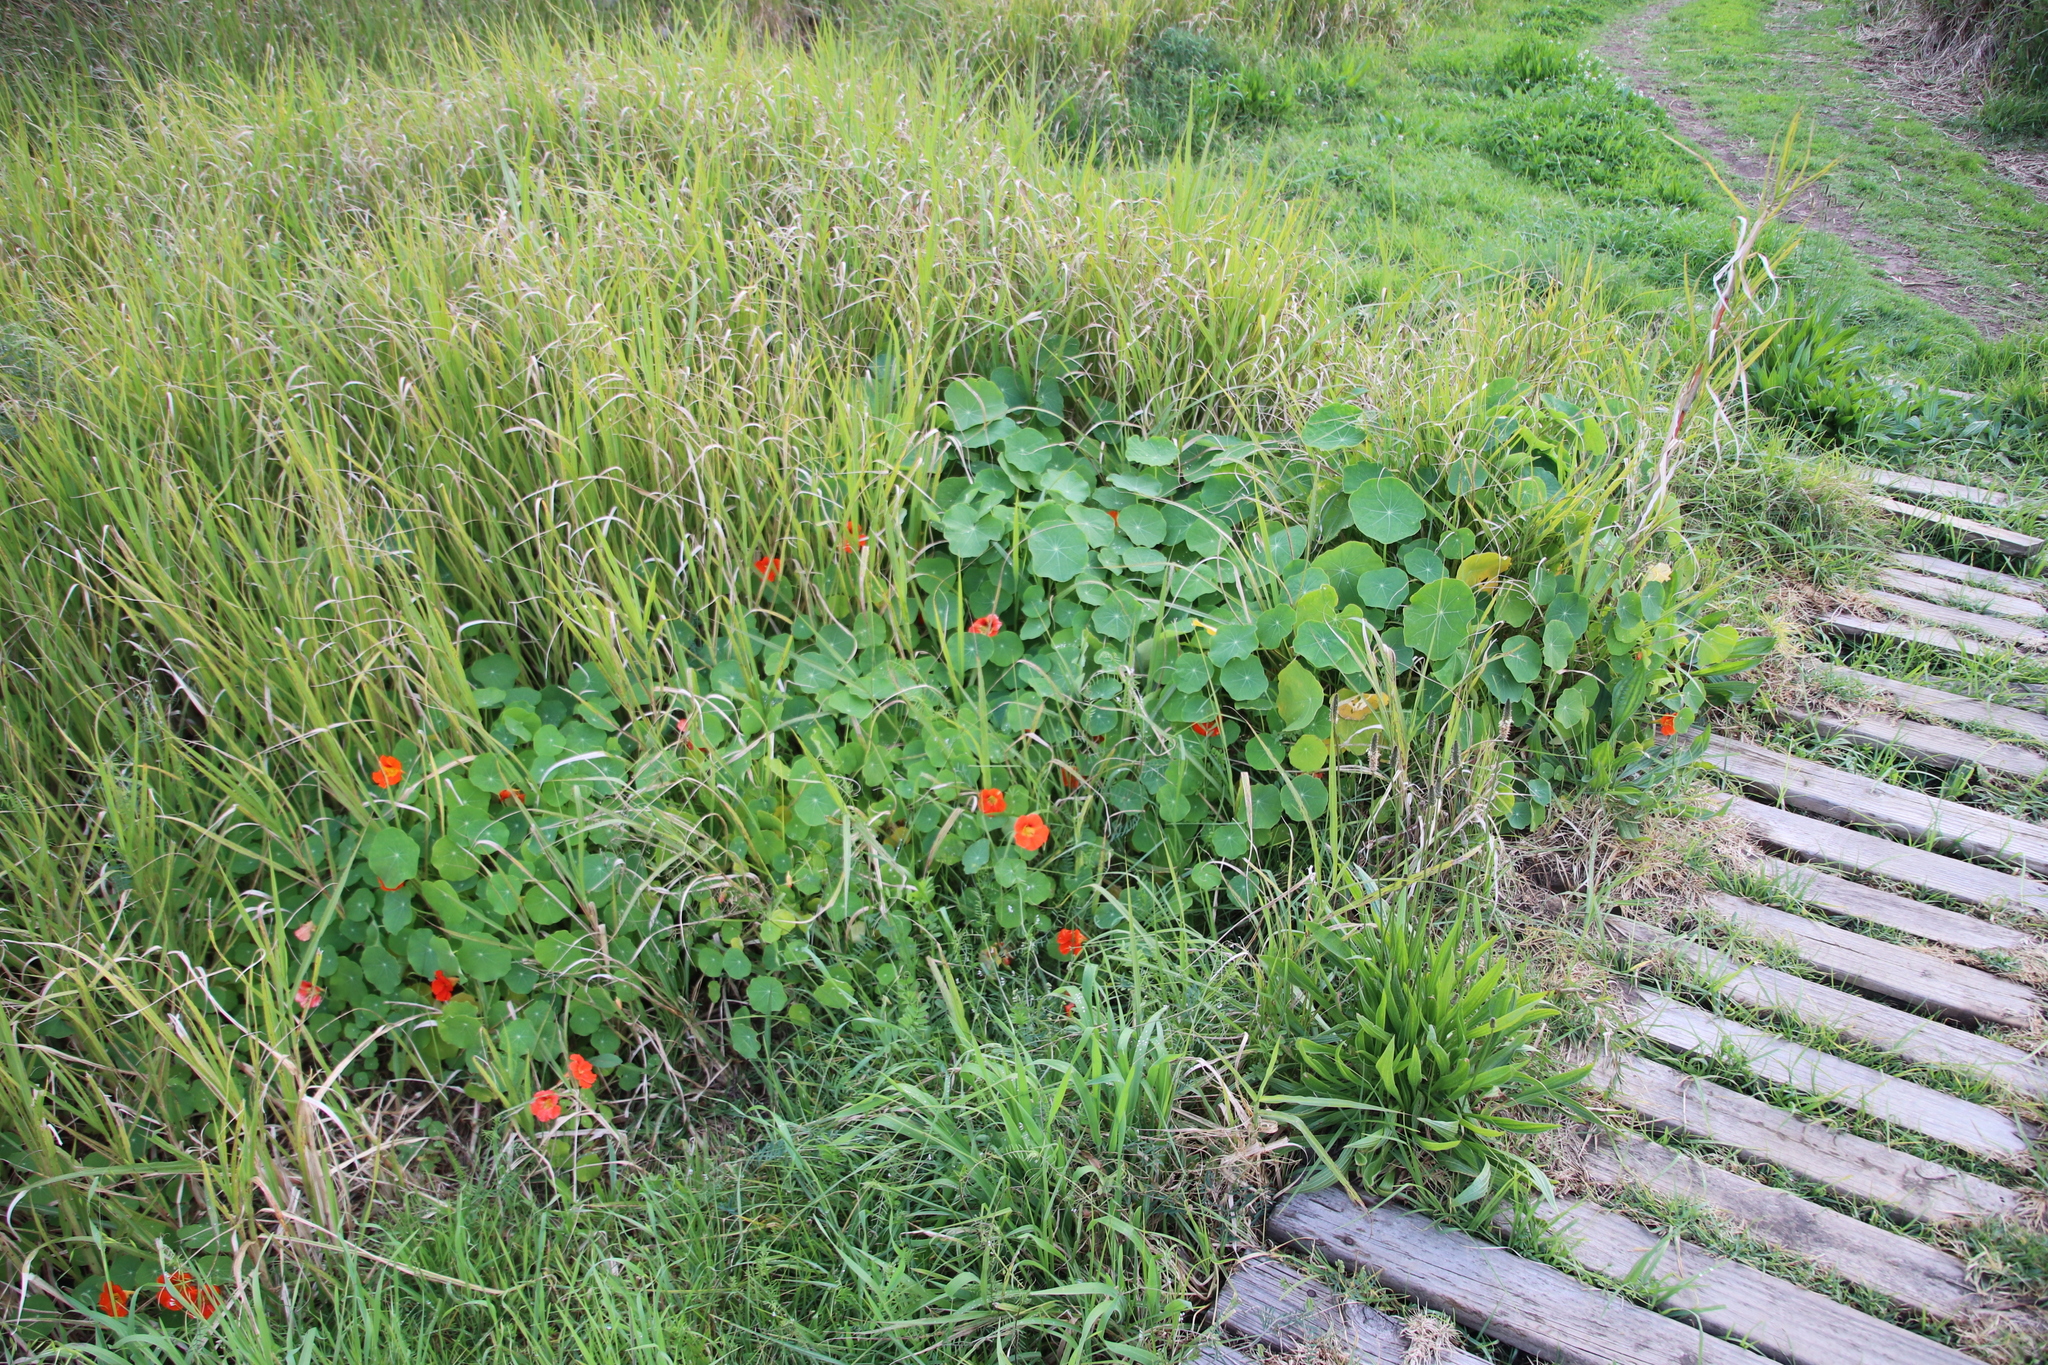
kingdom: Plantae
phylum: Tracheophyta
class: Magnoliopsida
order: Brassicales
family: Tropaeolaceae
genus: Tropaeolum
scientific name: Tropaeolum majus
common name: Nasturtium
